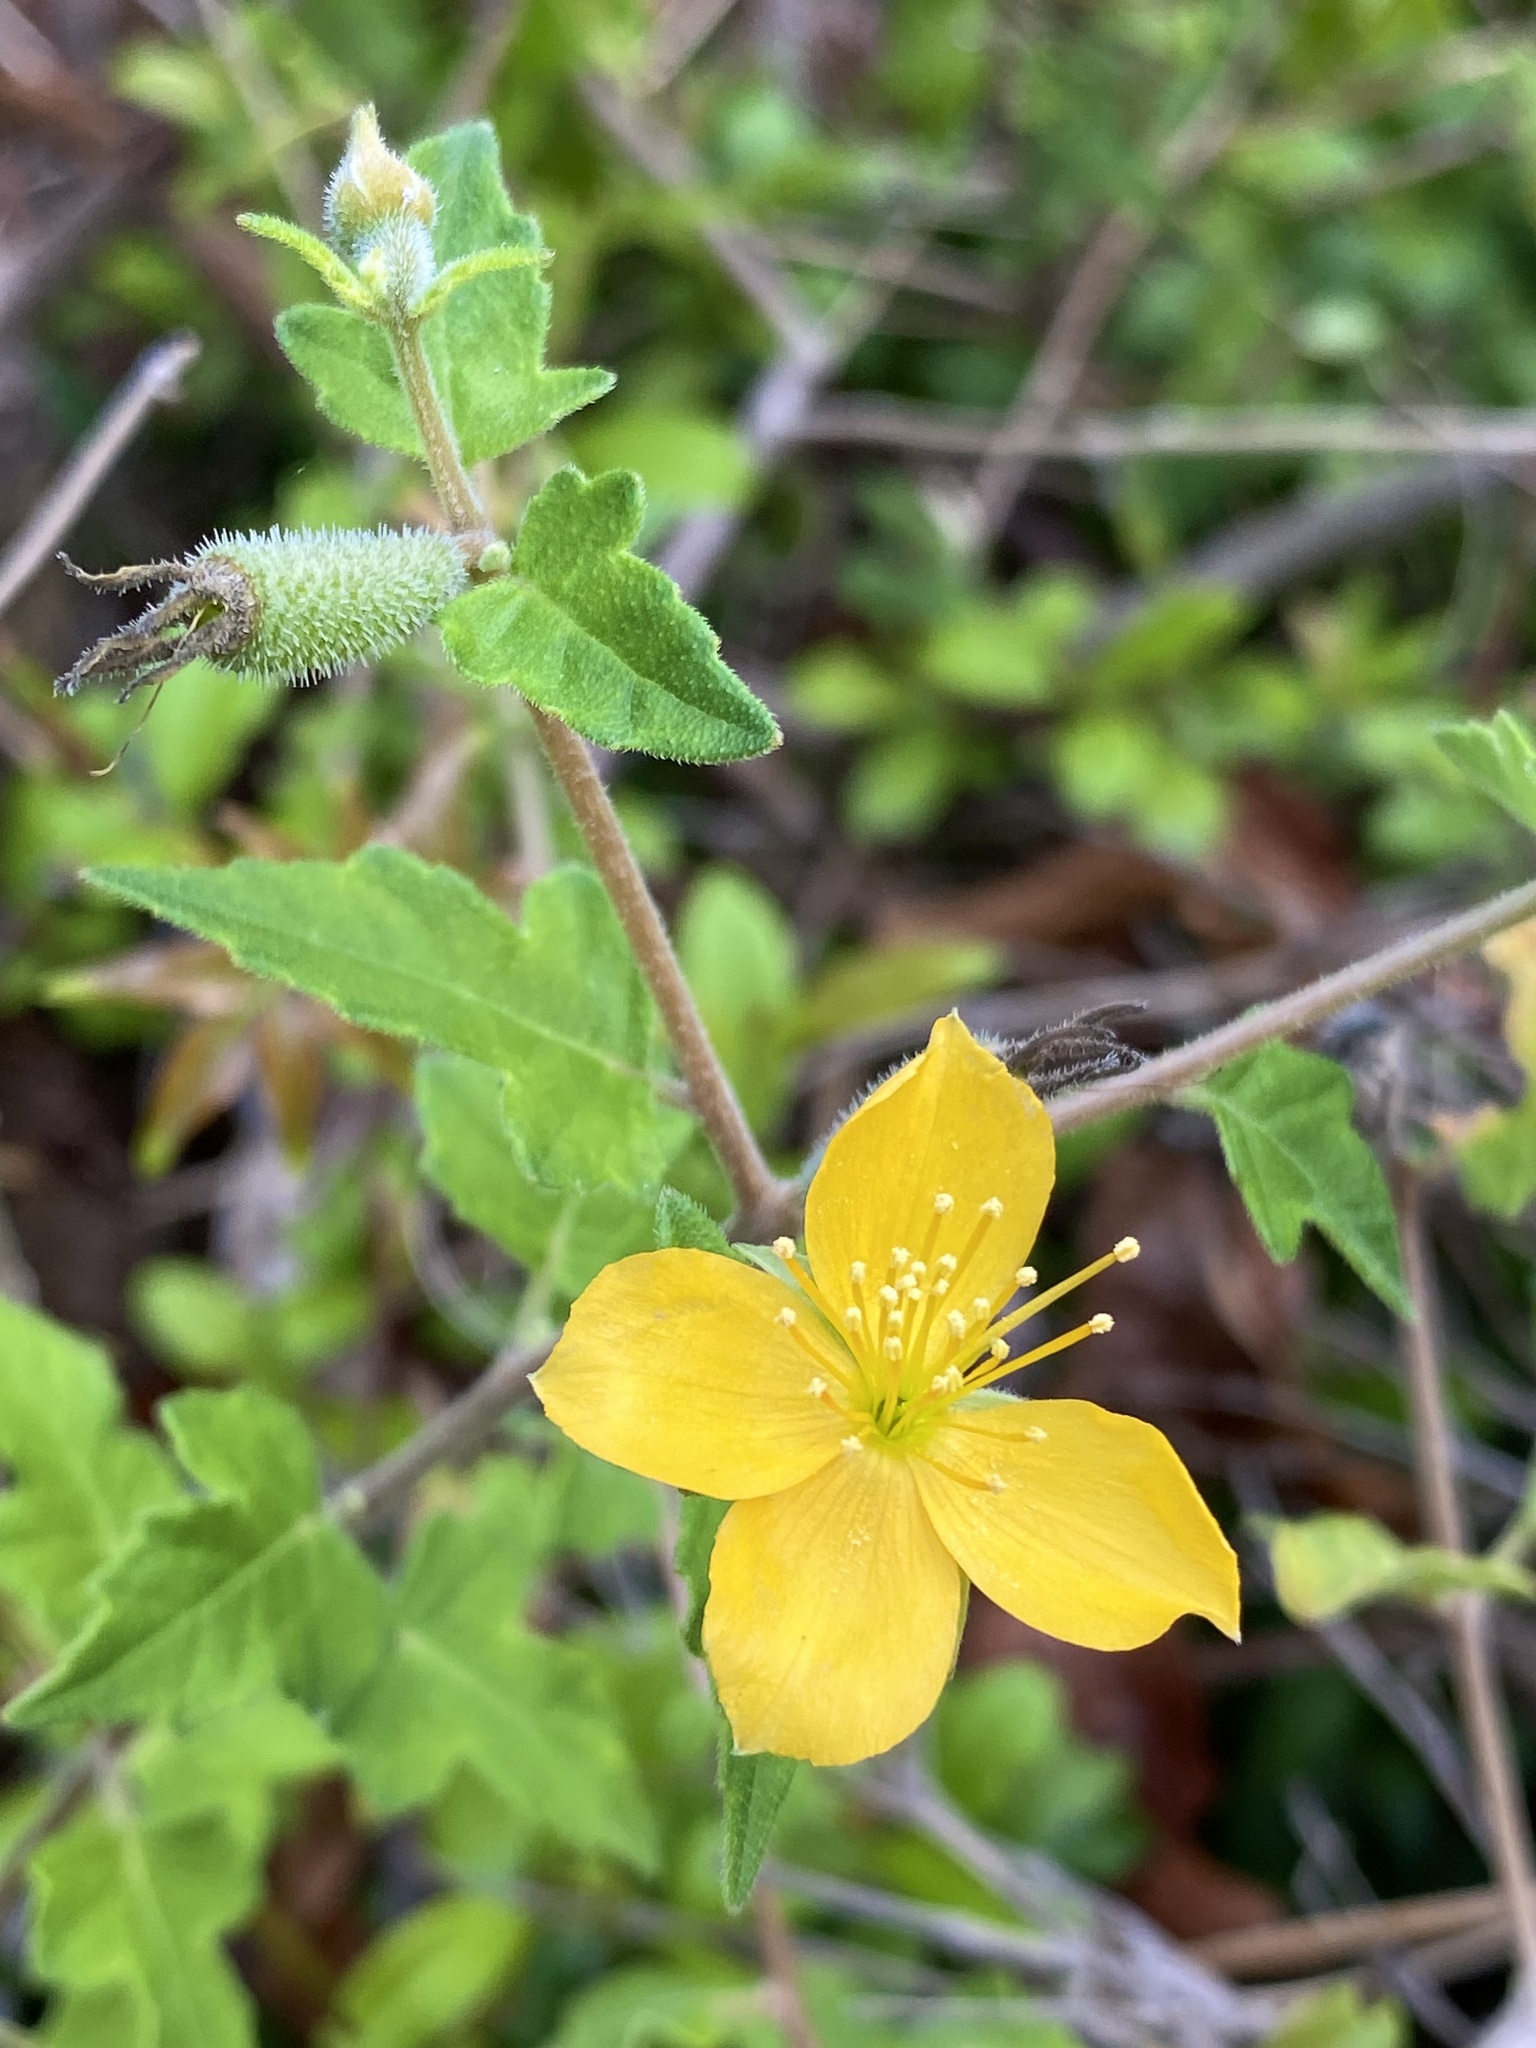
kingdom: Plantae
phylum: Tracheophyta
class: Magnoliopsida
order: Cornales
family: Loasaceae
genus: Mentzelia
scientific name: Mentzelia floridana
